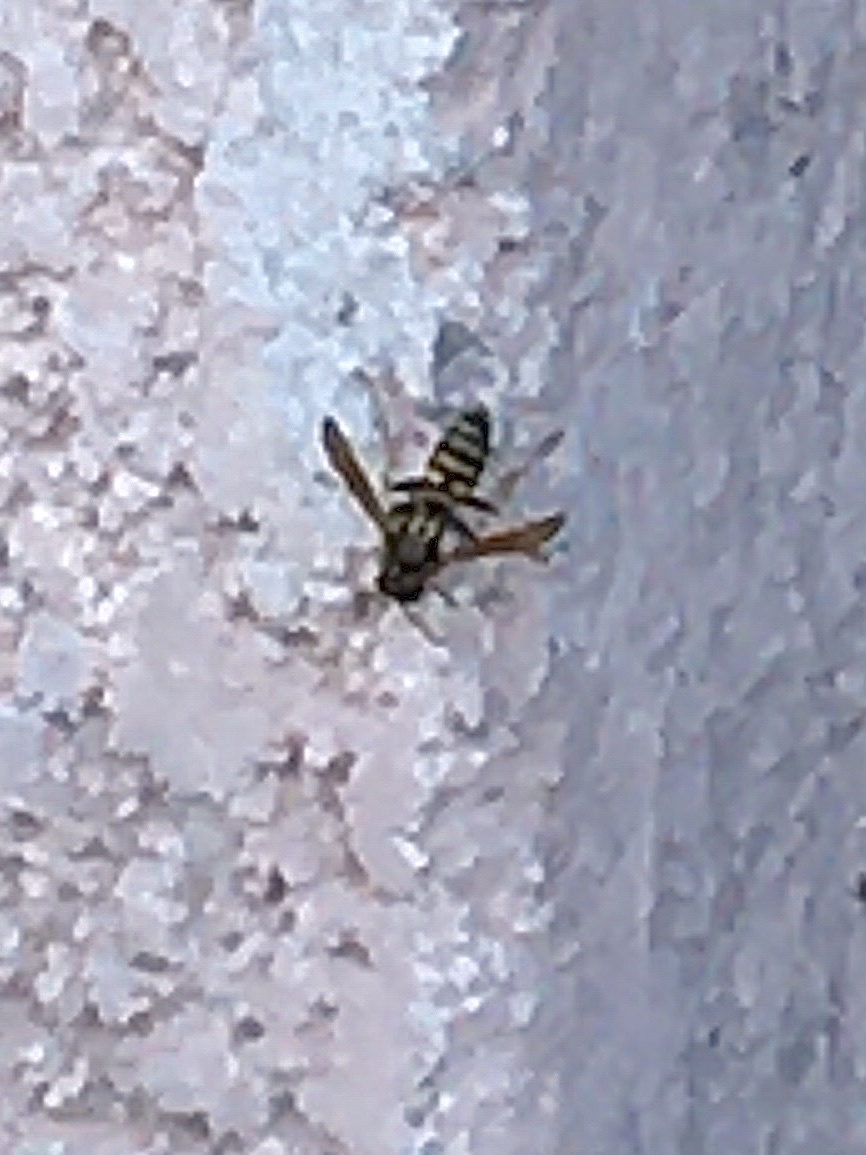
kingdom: Animalia
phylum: Arthropoda
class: Insecta
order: Hymenoptera
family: Eumenidae
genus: Polistes
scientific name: Polistes dominula
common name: Paper wasp
